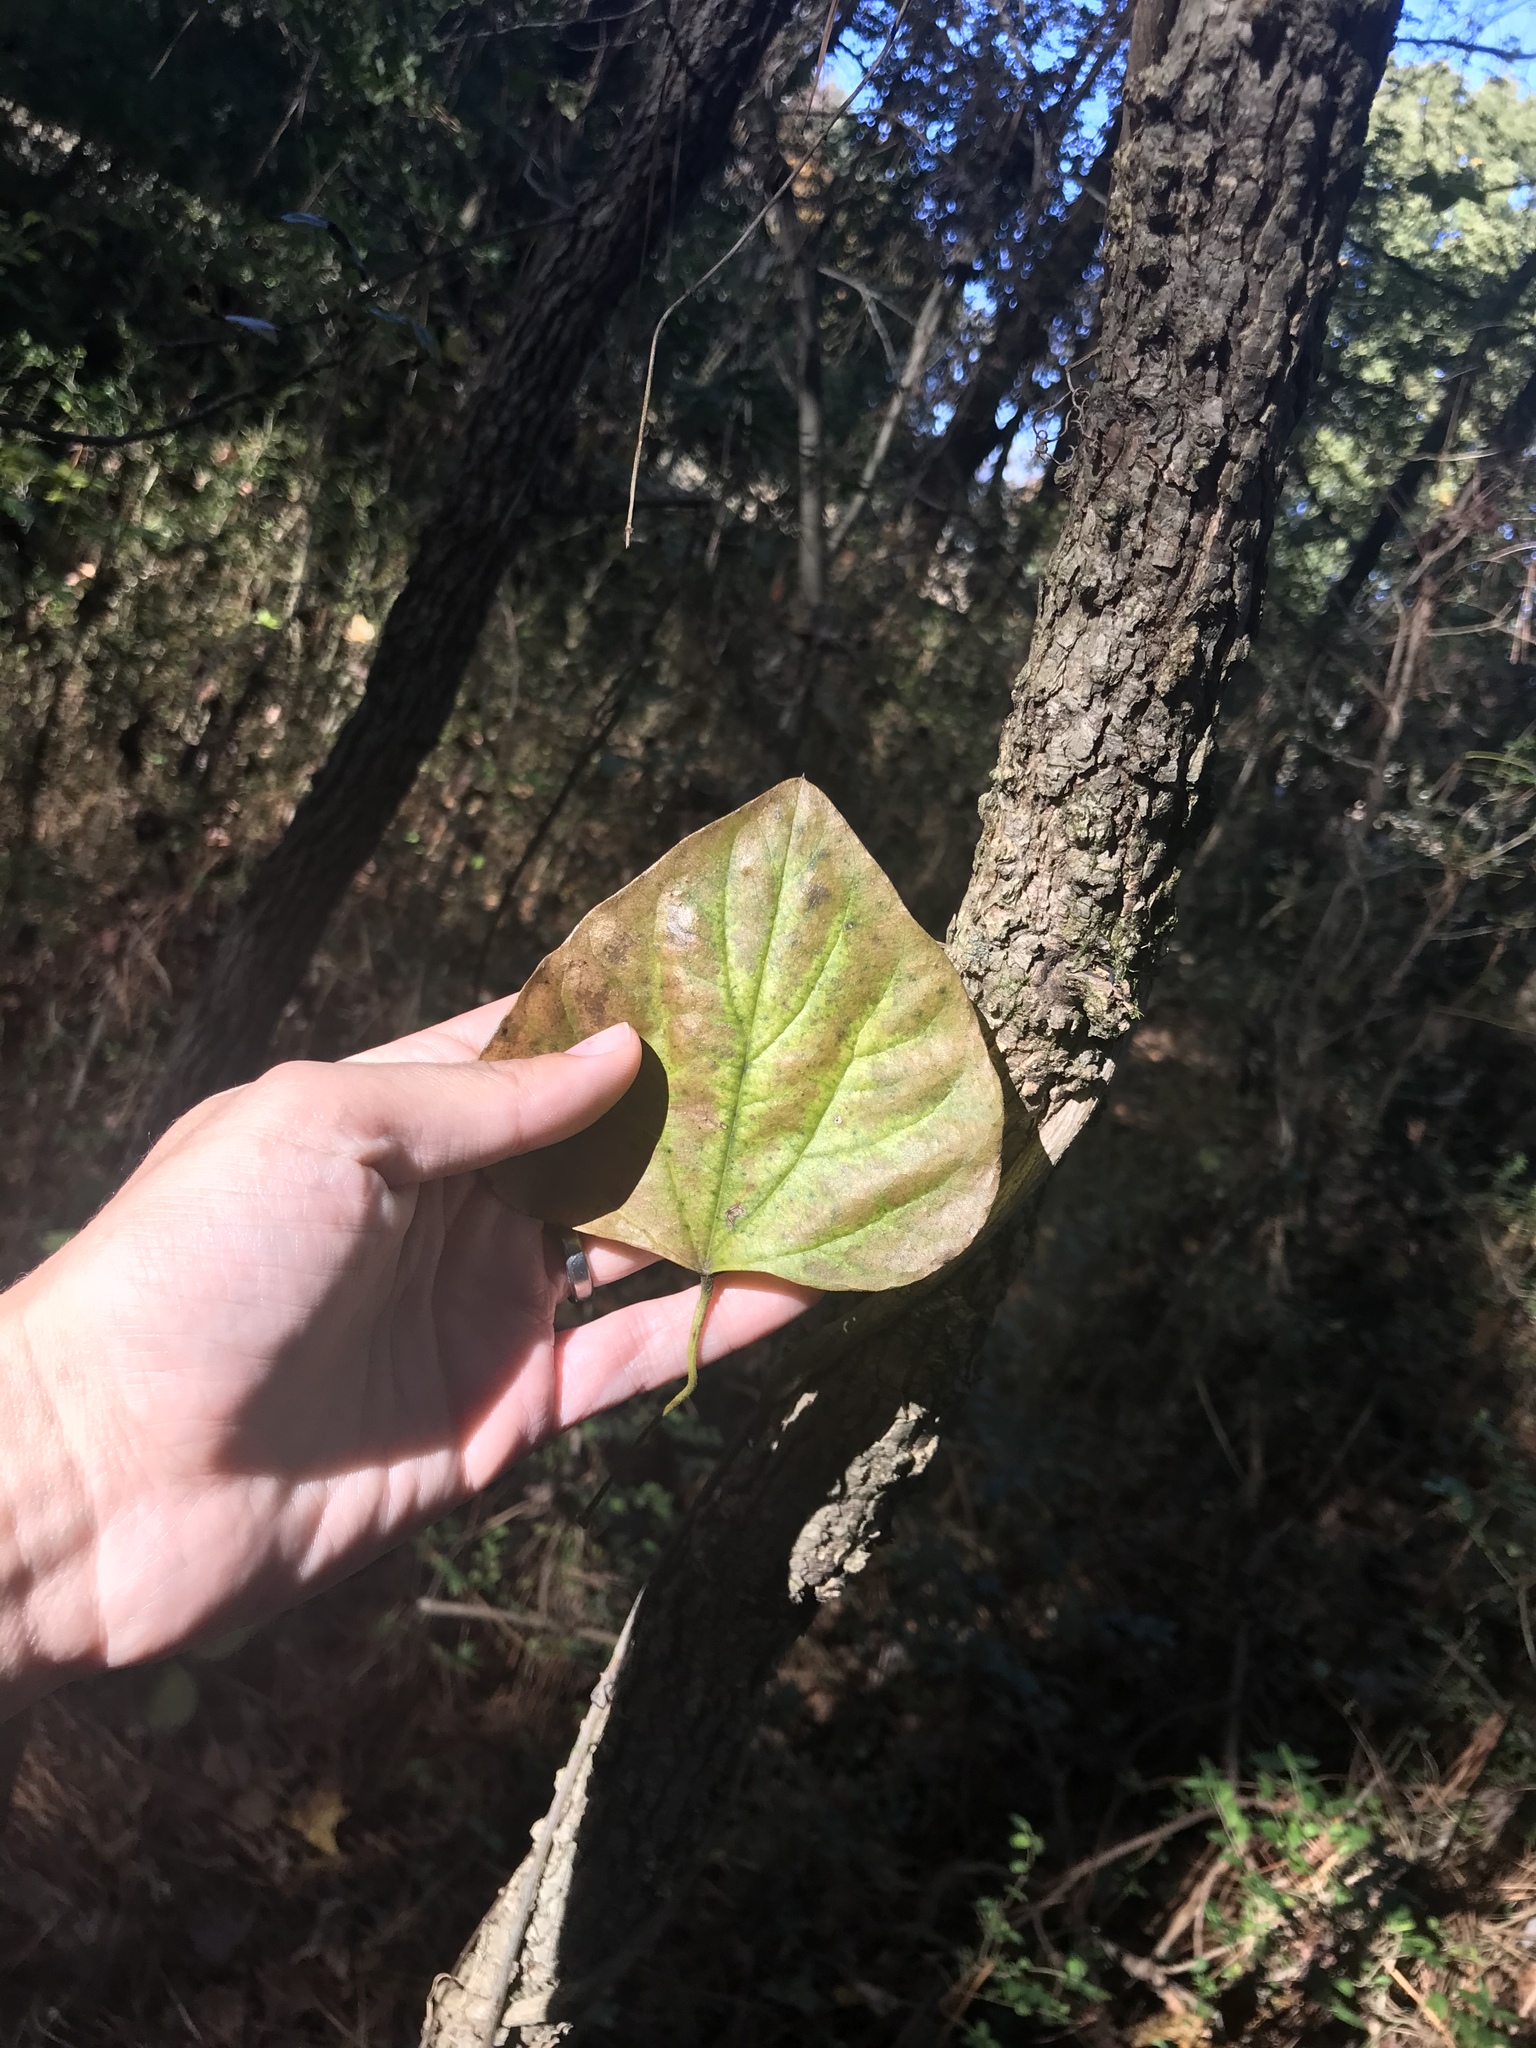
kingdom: Plantae
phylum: Tracheophyta
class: Magnoliopsida
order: Fabales
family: Fabaceae
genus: Cercis
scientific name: Cercis canadensis
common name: Eastern redbud
